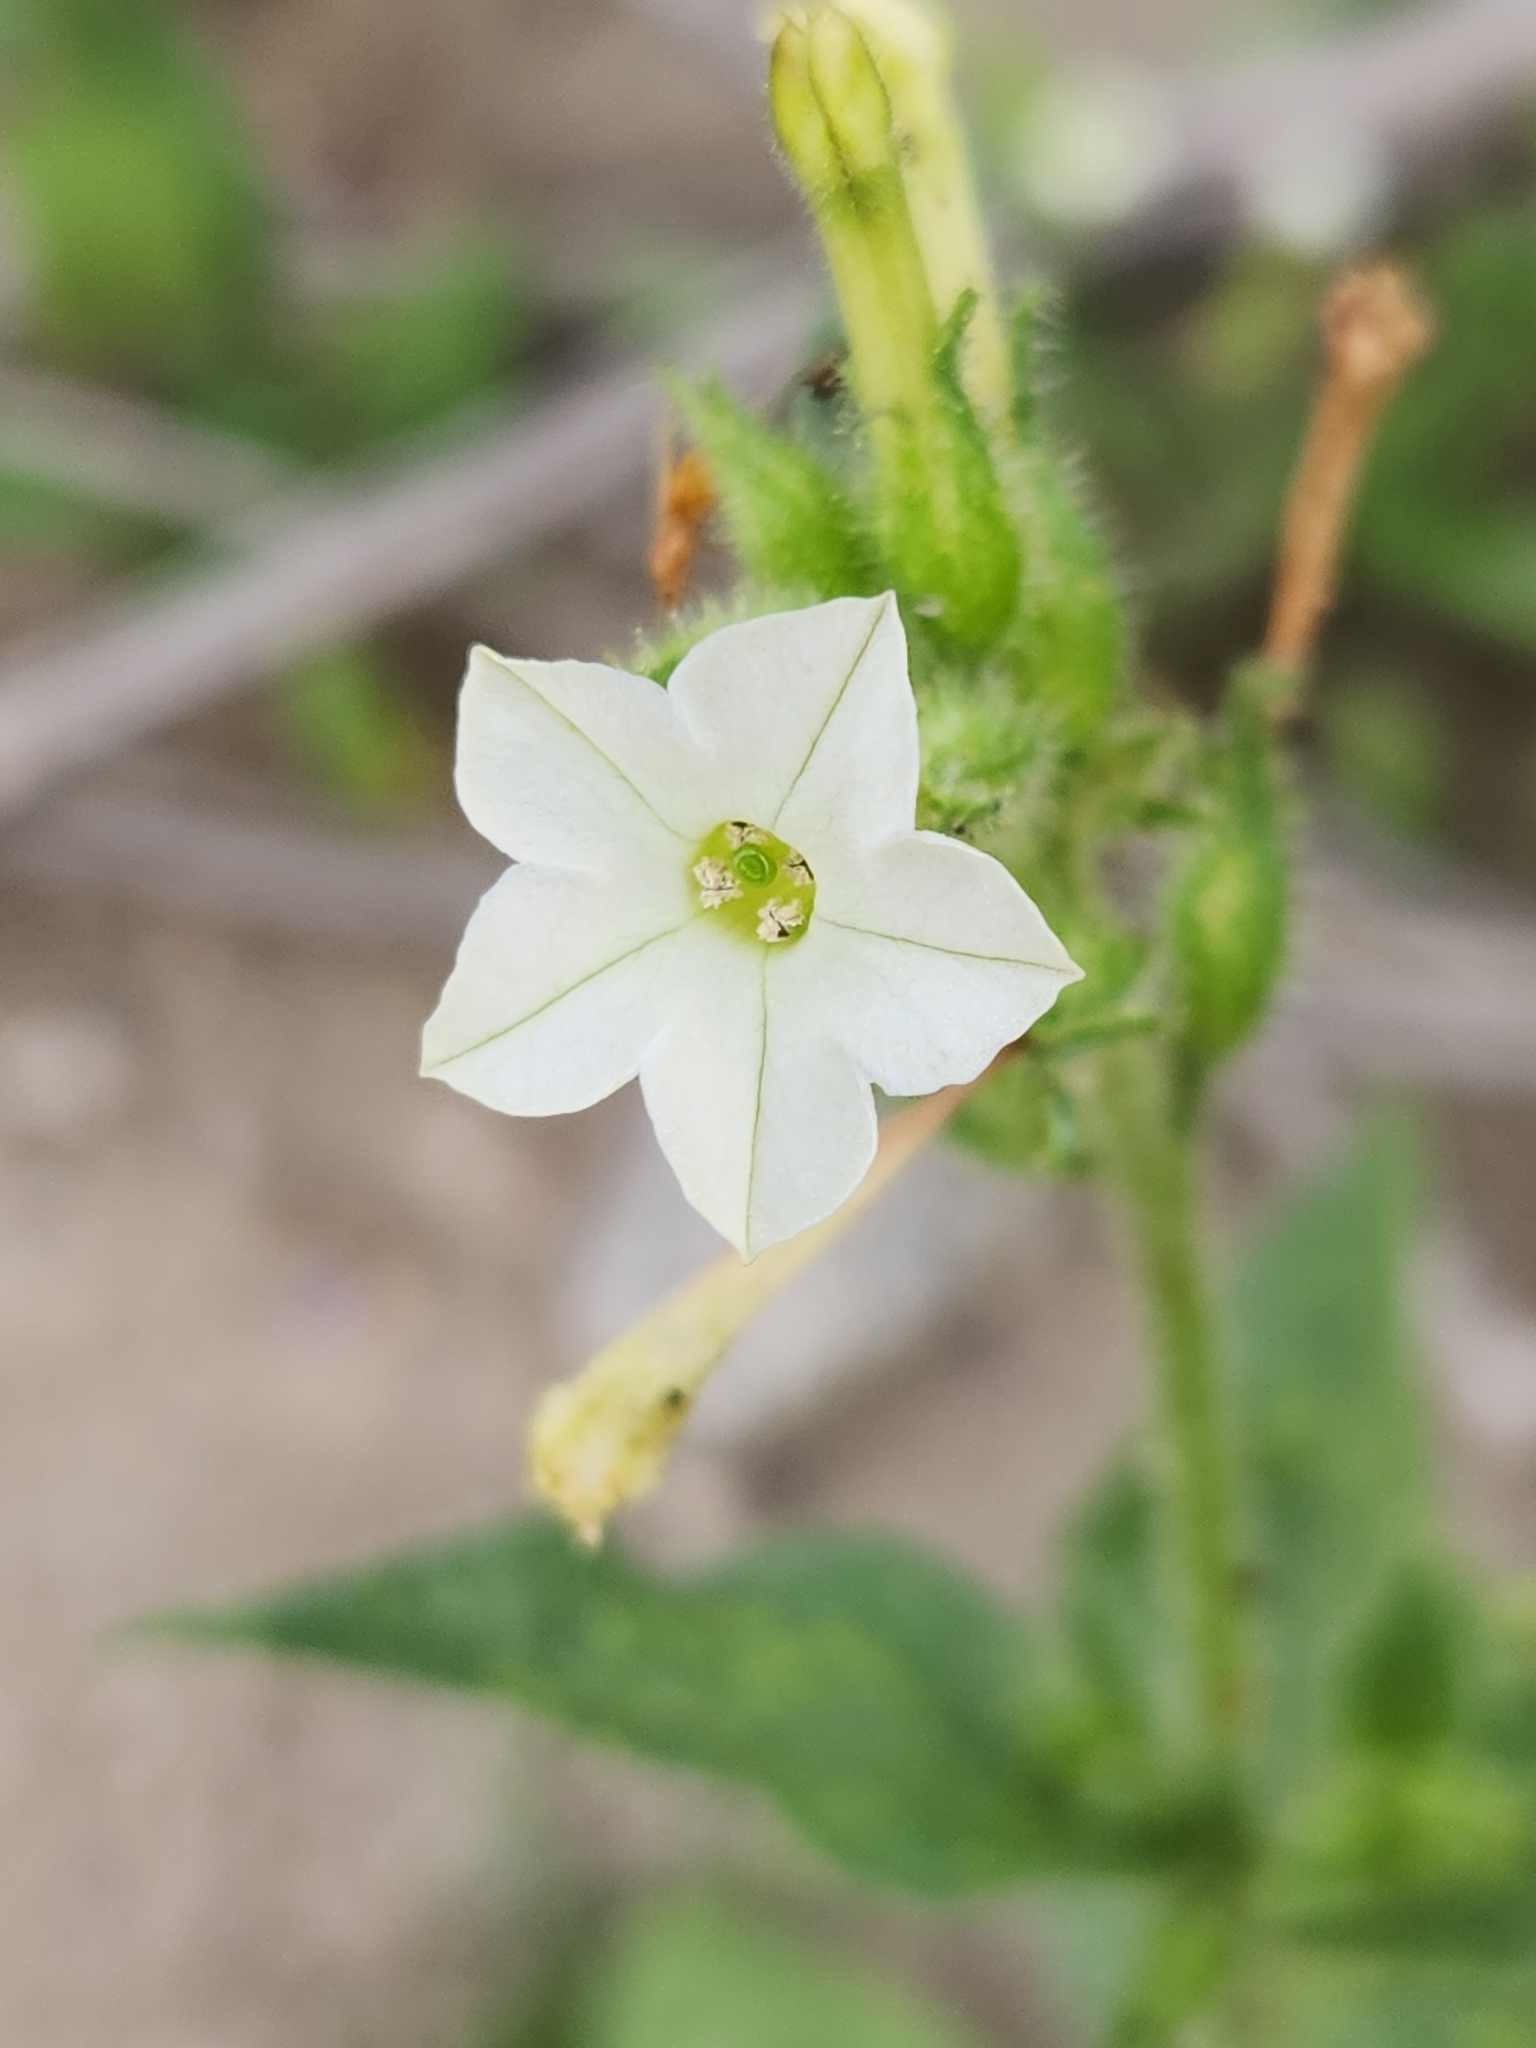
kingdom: Plantae
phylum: Tracheophyta
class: Magnoliopsida
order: Solanales
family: Solanaceae
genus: Nicotiana
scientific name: Nicotiana clevelandii
